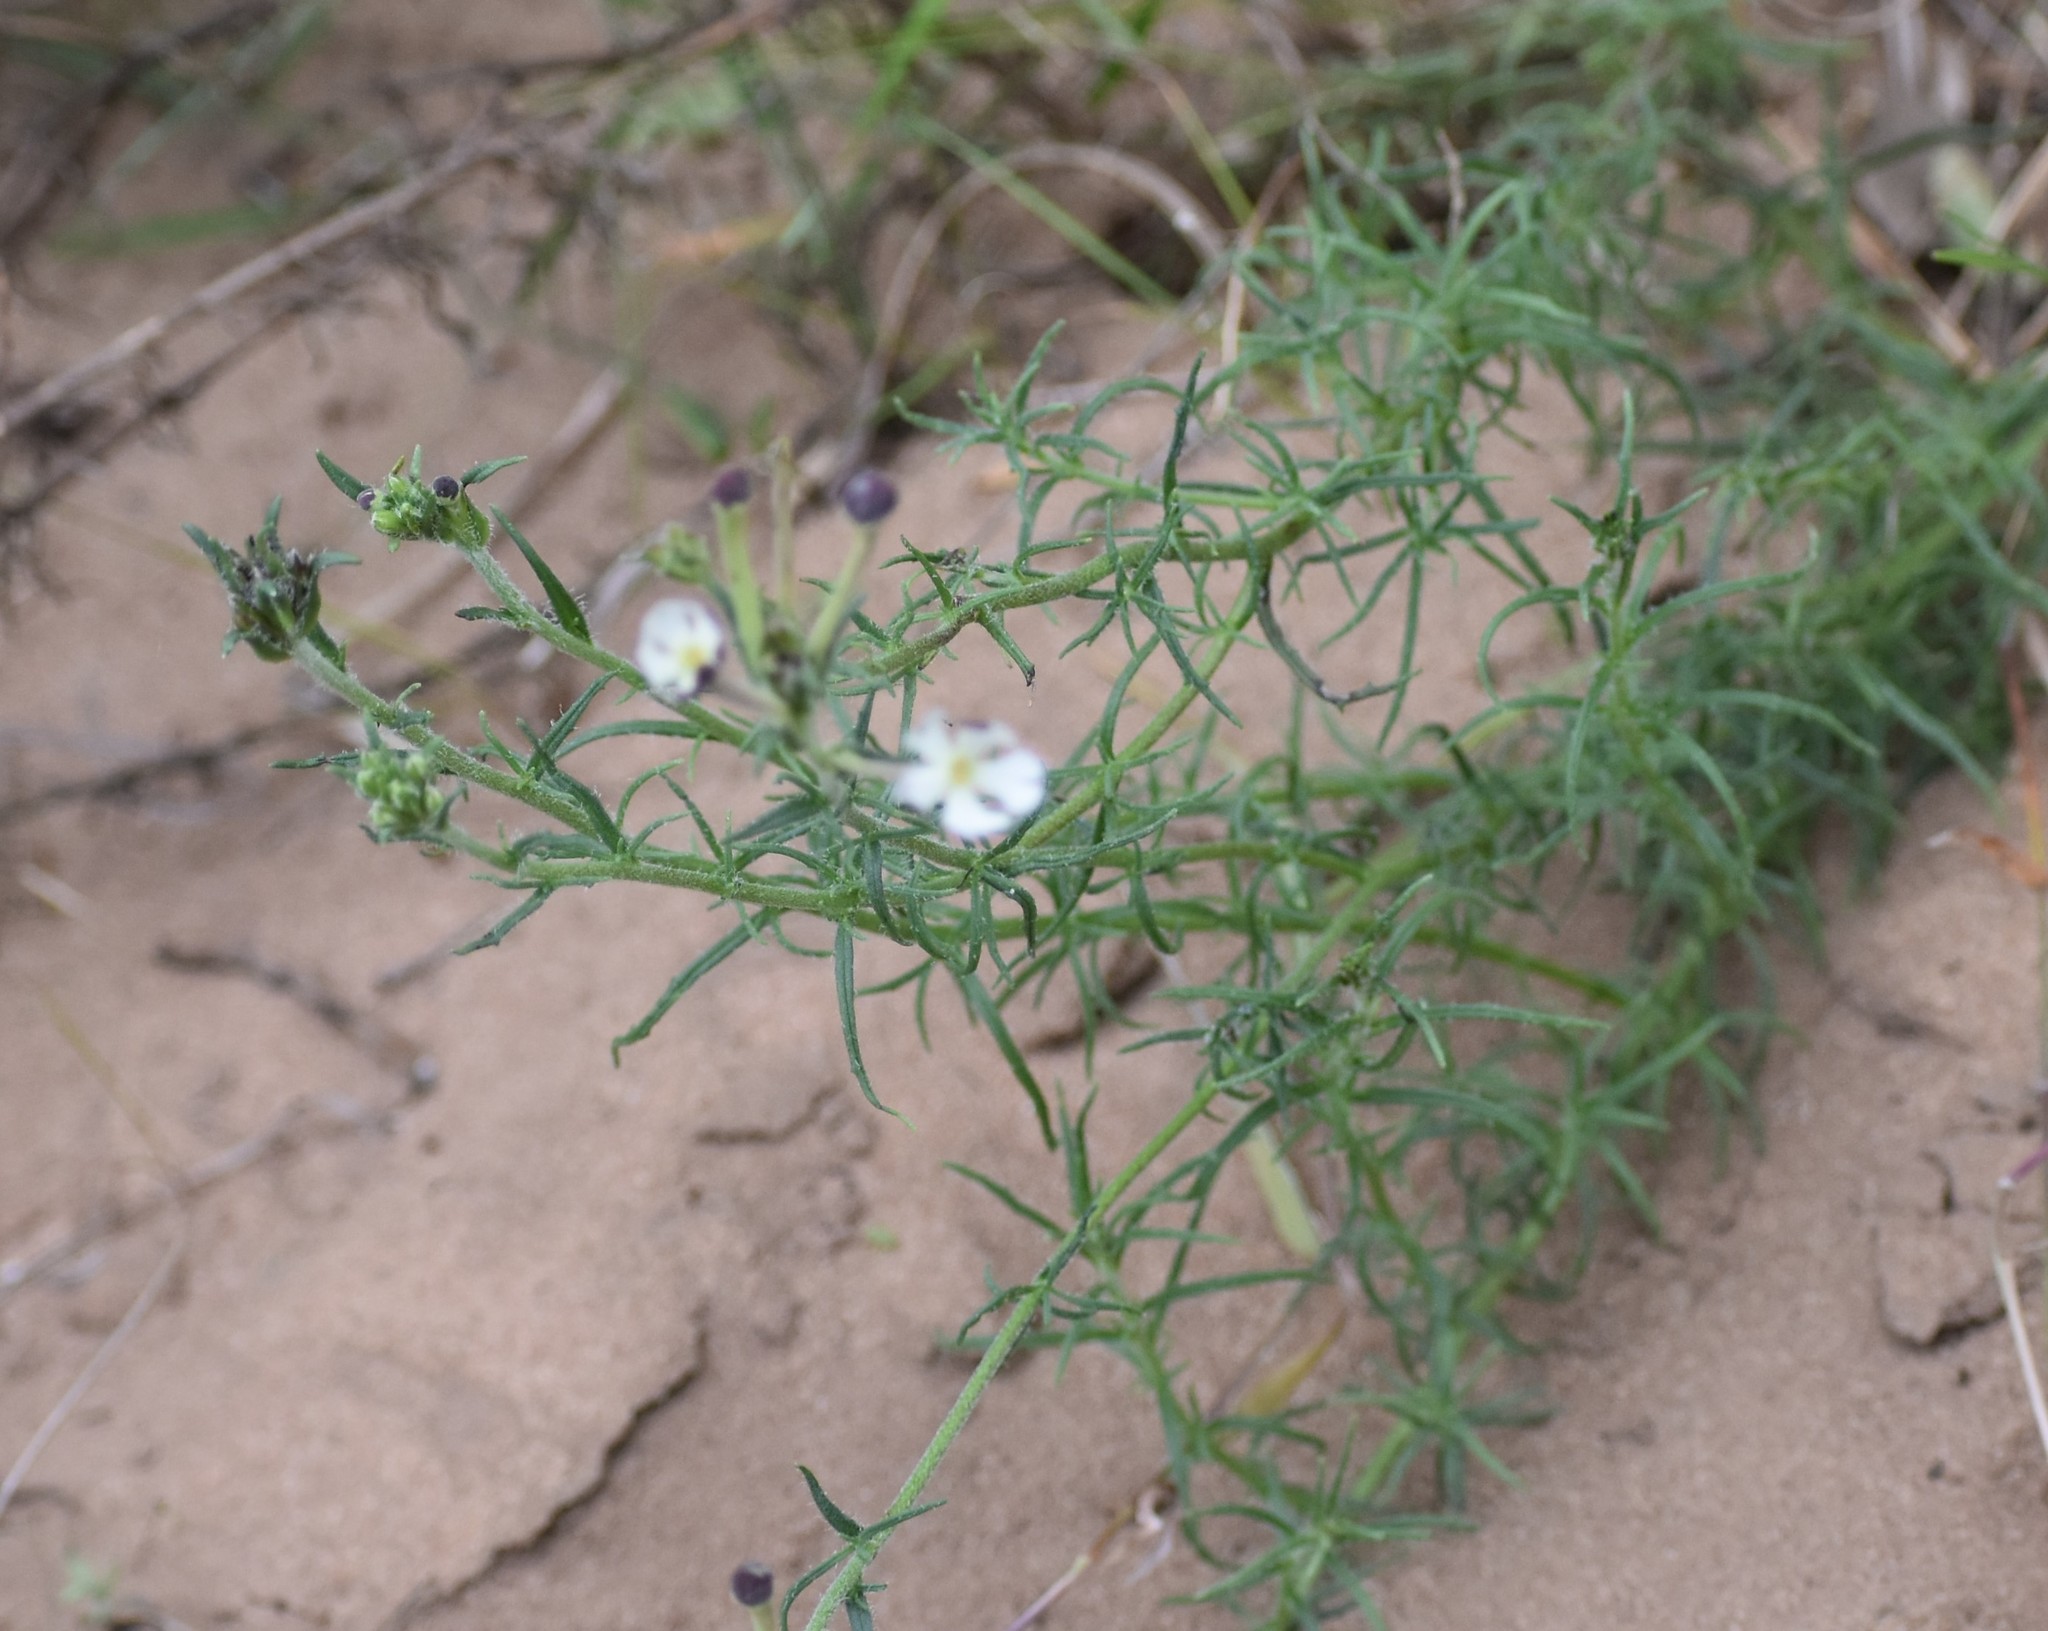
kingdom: Plantae
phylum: Tracheophyta
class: Magnoliopsida
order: Lamiales
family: Scrophulariaceae
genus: Zaluzianskya
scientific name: Zaluzianskya capensis
